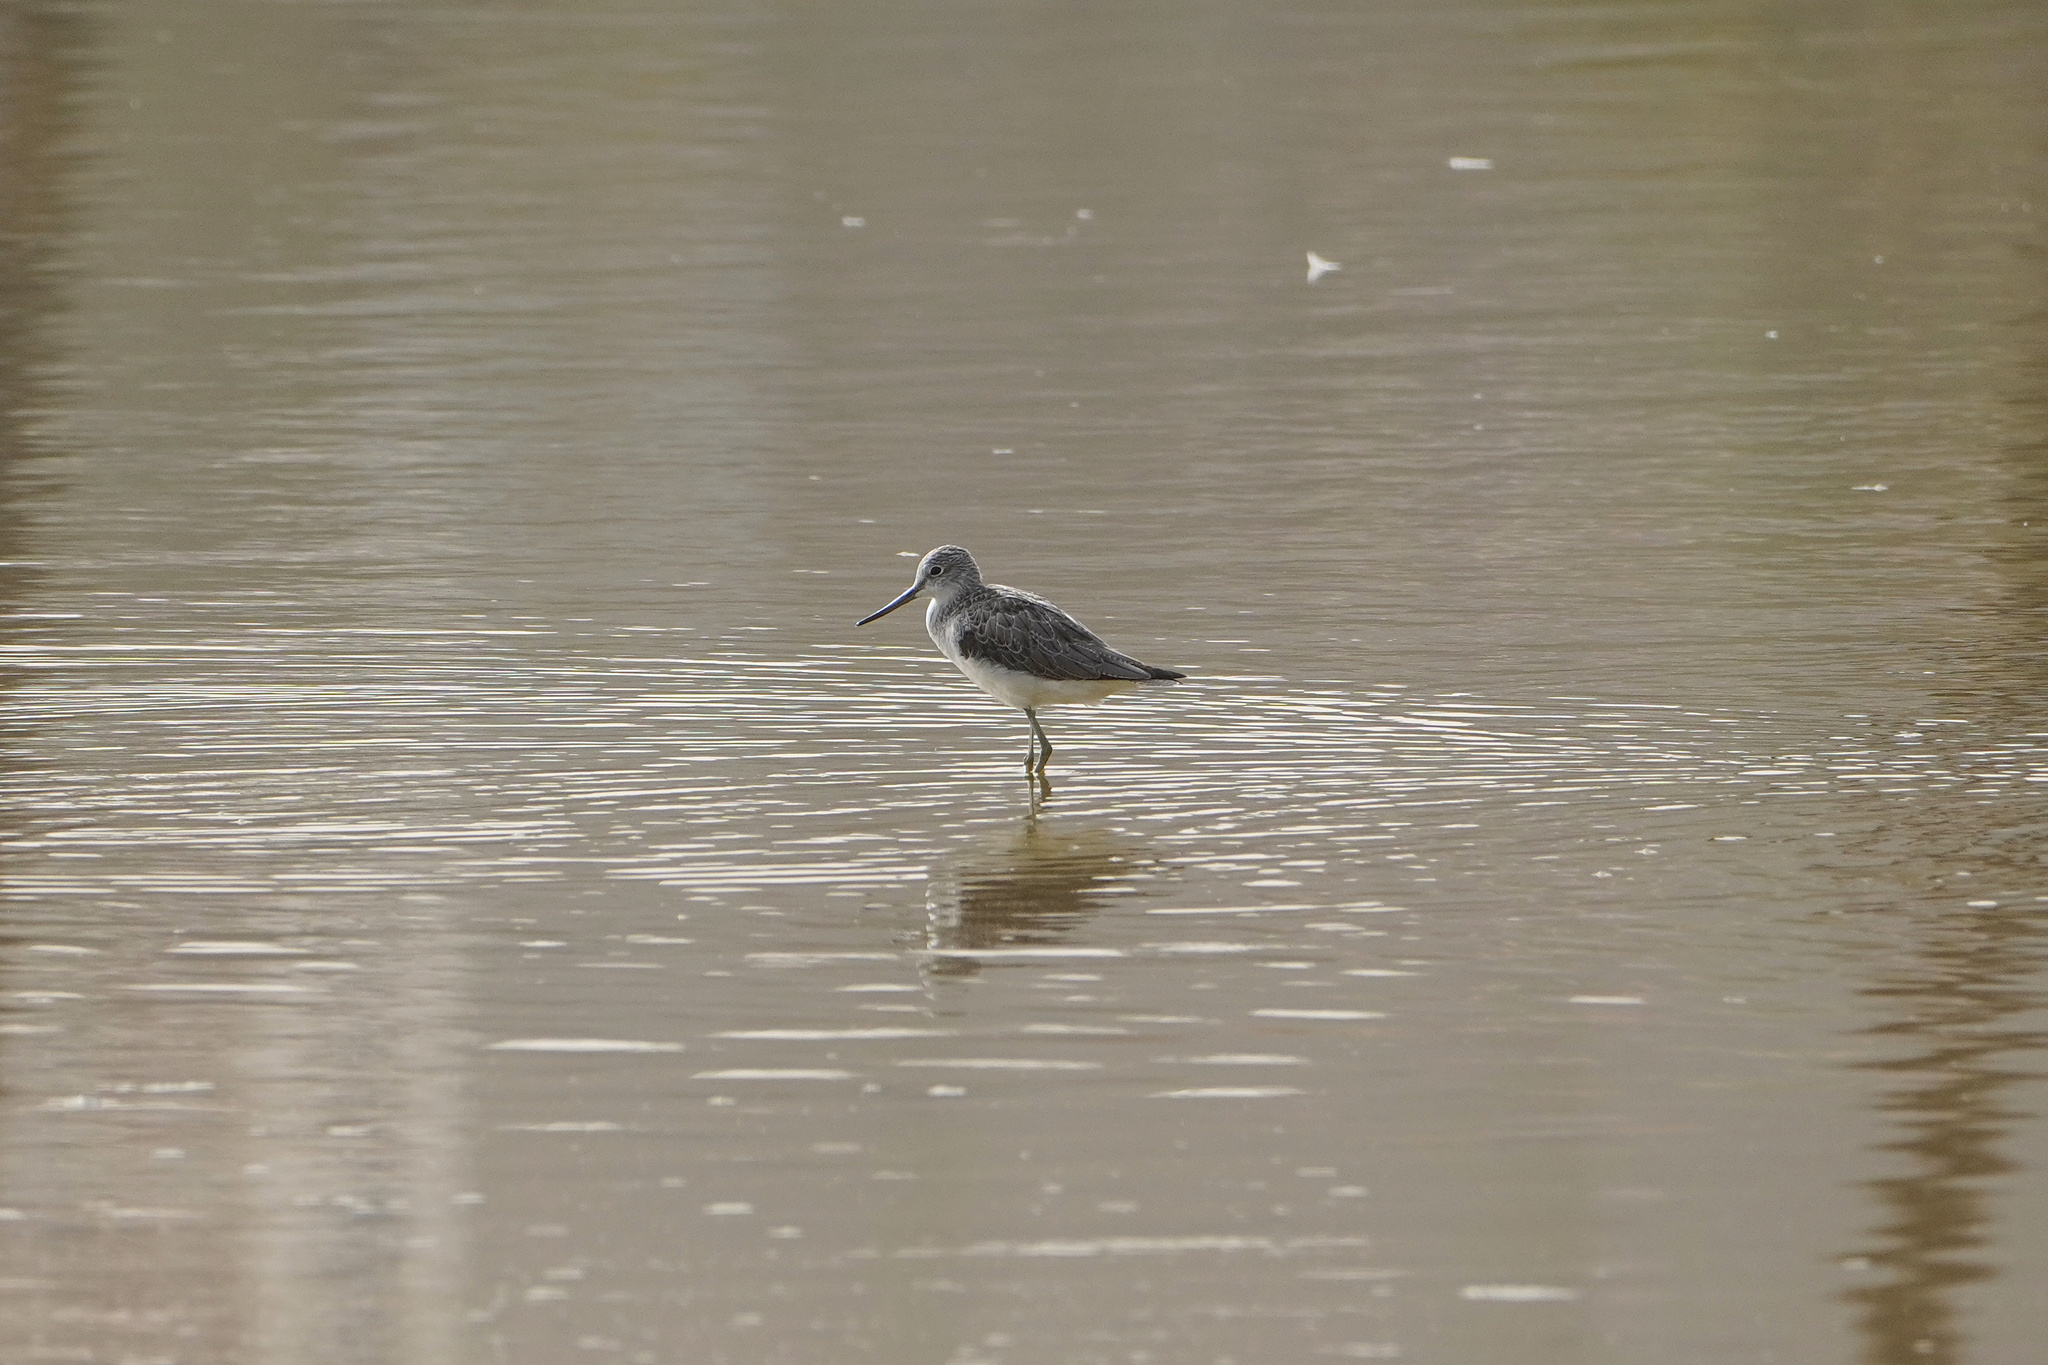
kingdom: Animalia
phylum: Chordata
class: Aves
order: Charadriiformes
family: Scolopacidae
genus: Tringa
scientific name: Tringa nebularia
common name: Common greenshank
